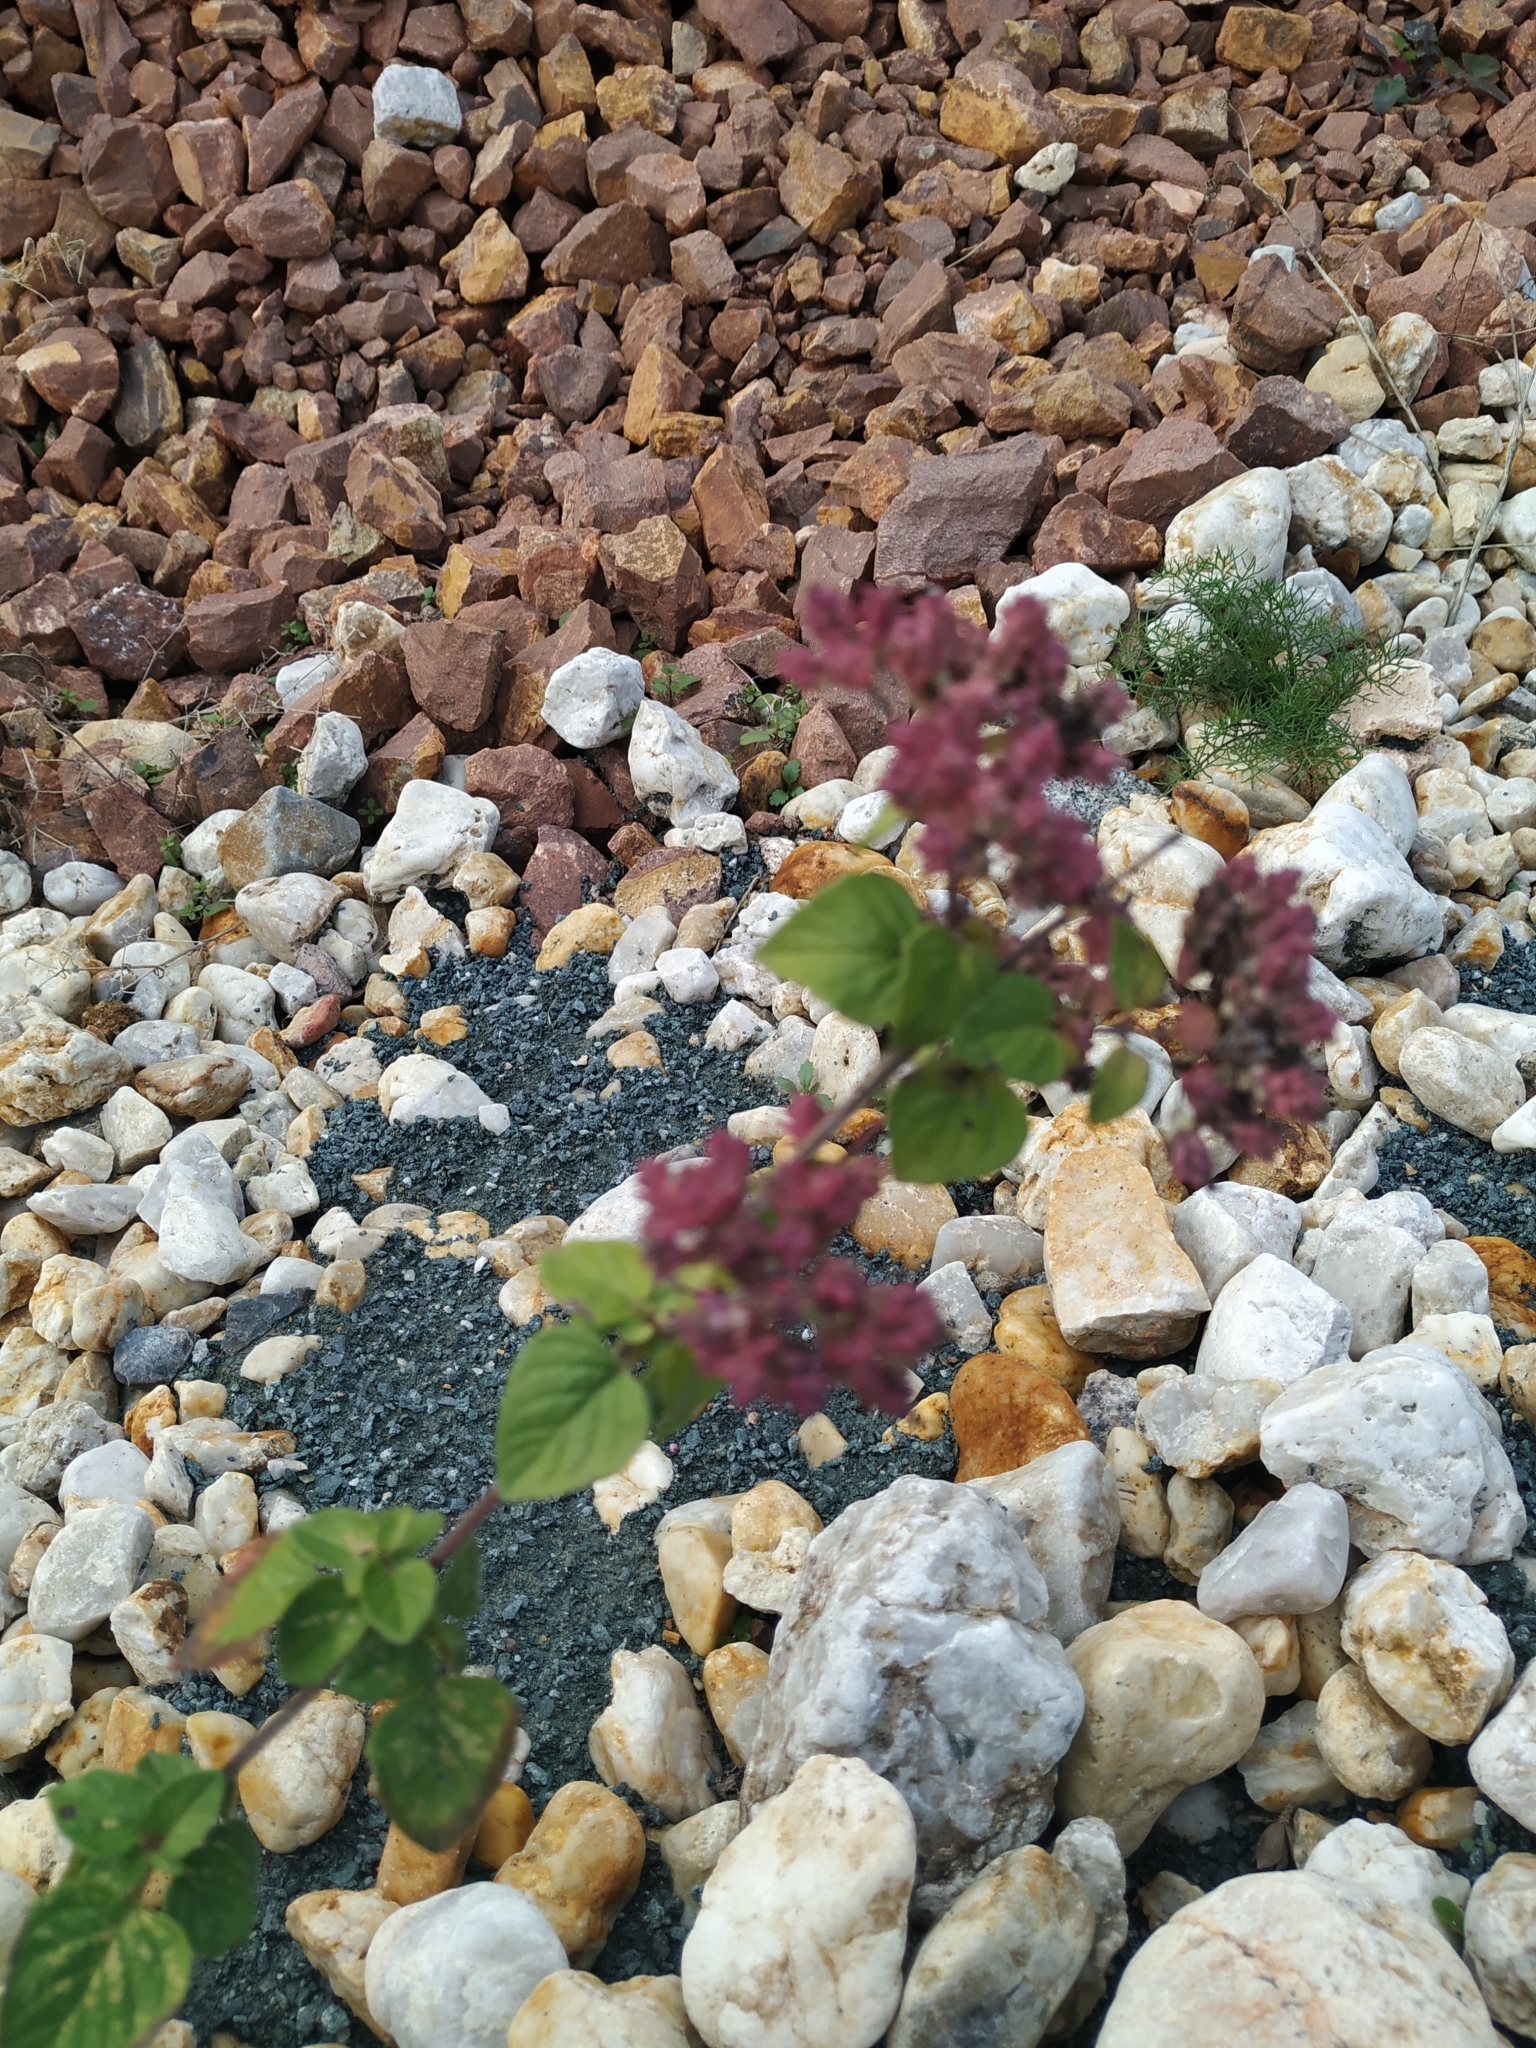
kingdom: Plantae
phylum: Tracheophyta
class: Magnoliopsida
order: Lamiales
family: Lamiaceae
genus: Origanum
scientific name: Origanum vulgare
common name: Wild marjoram
